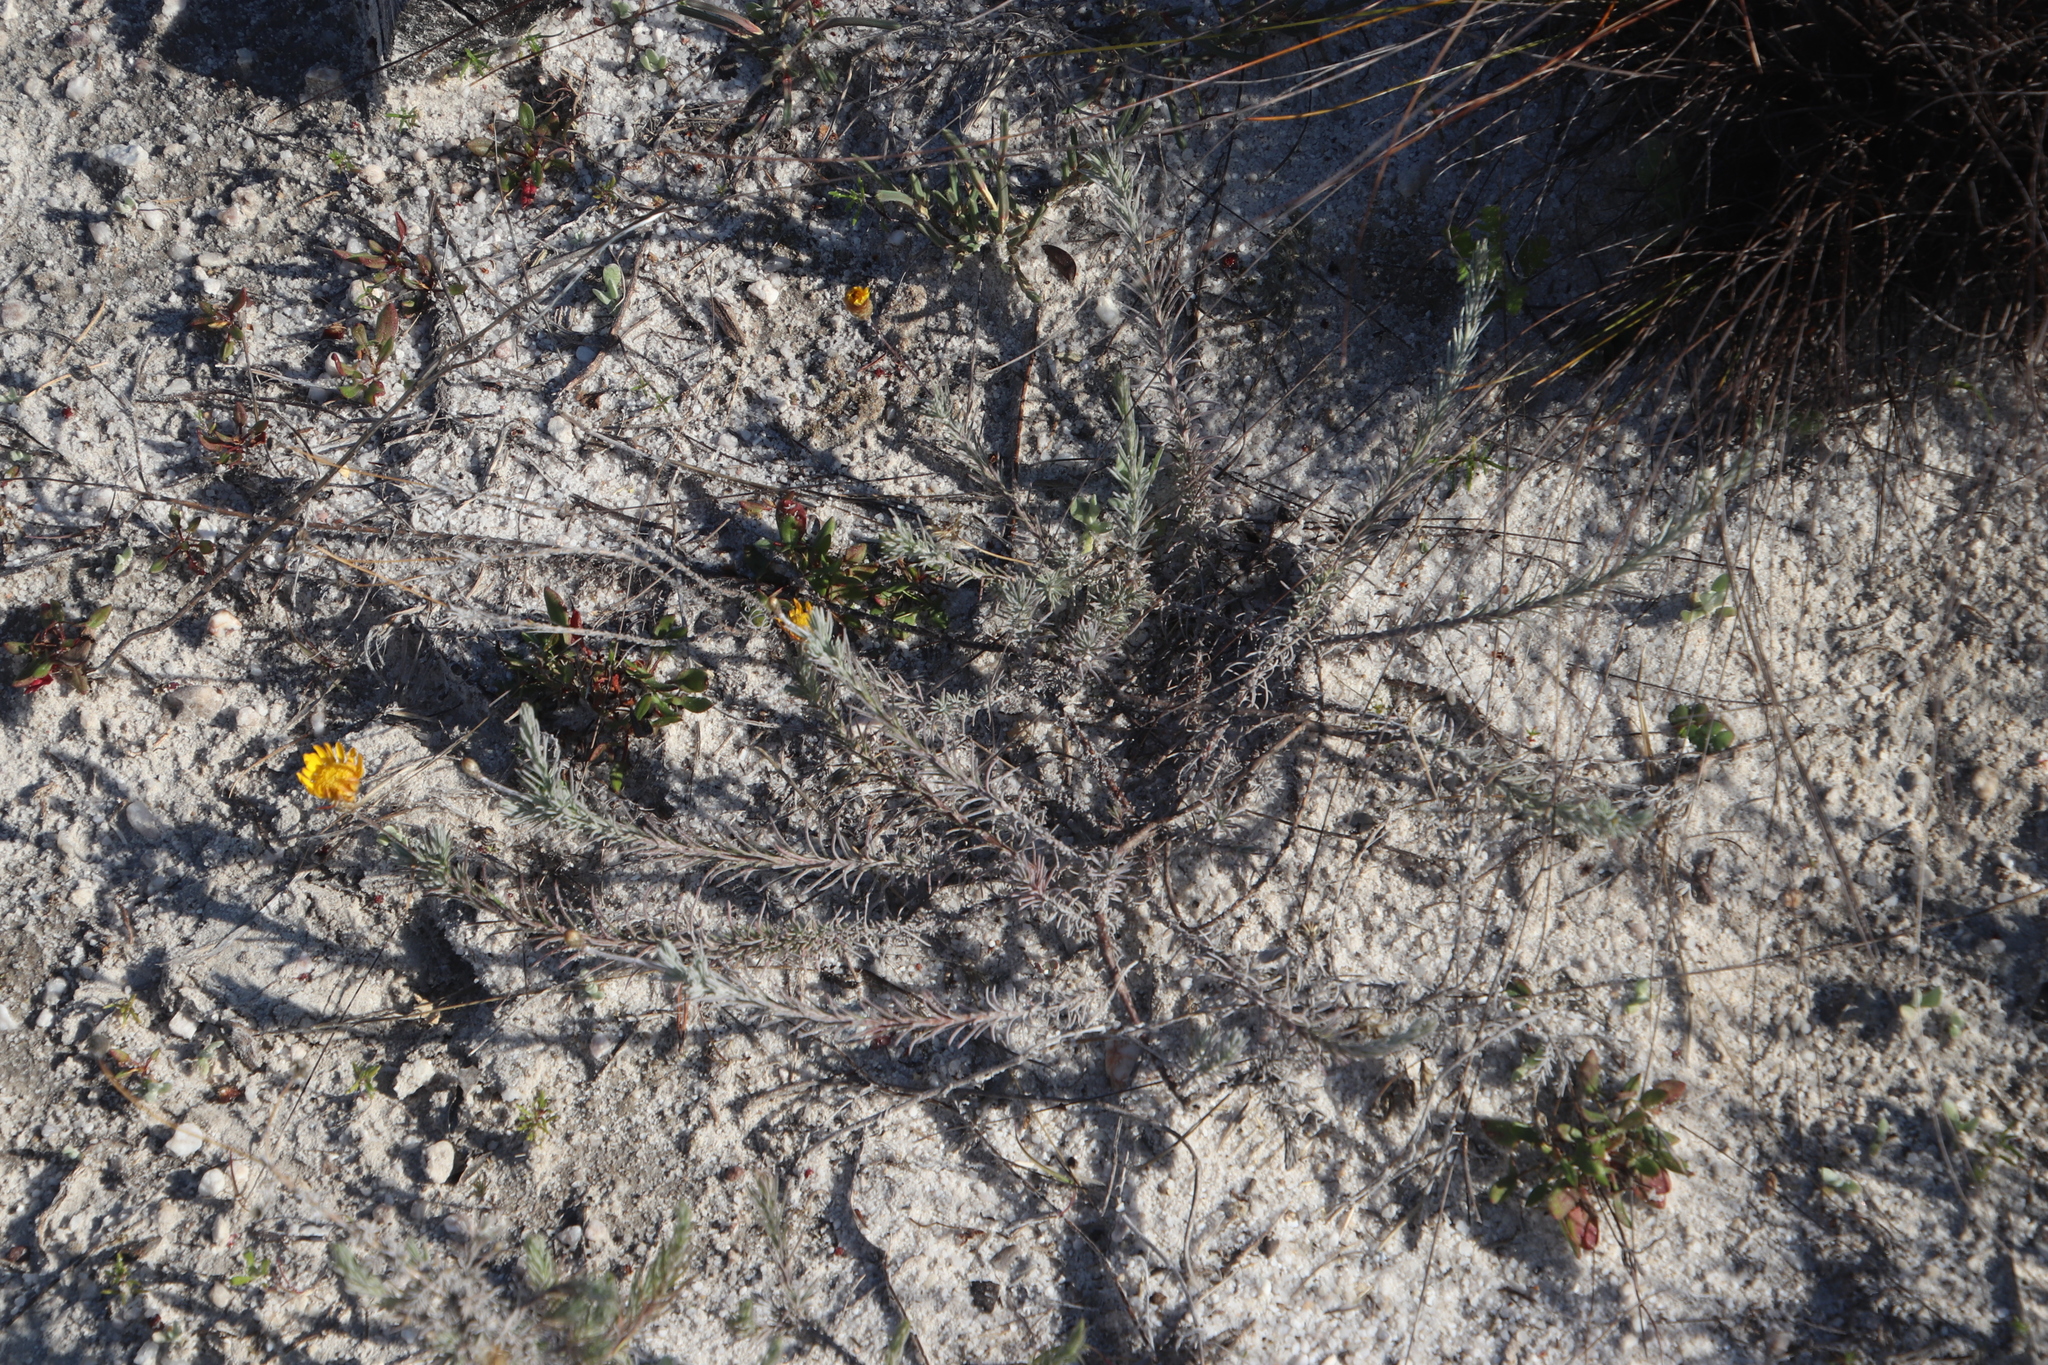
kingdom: Plantae
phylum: Tracheophyta
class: Magnoliopsida
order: Asterales
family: Asteraceae
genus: Leysera
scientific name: Leysera gnaphalodes
